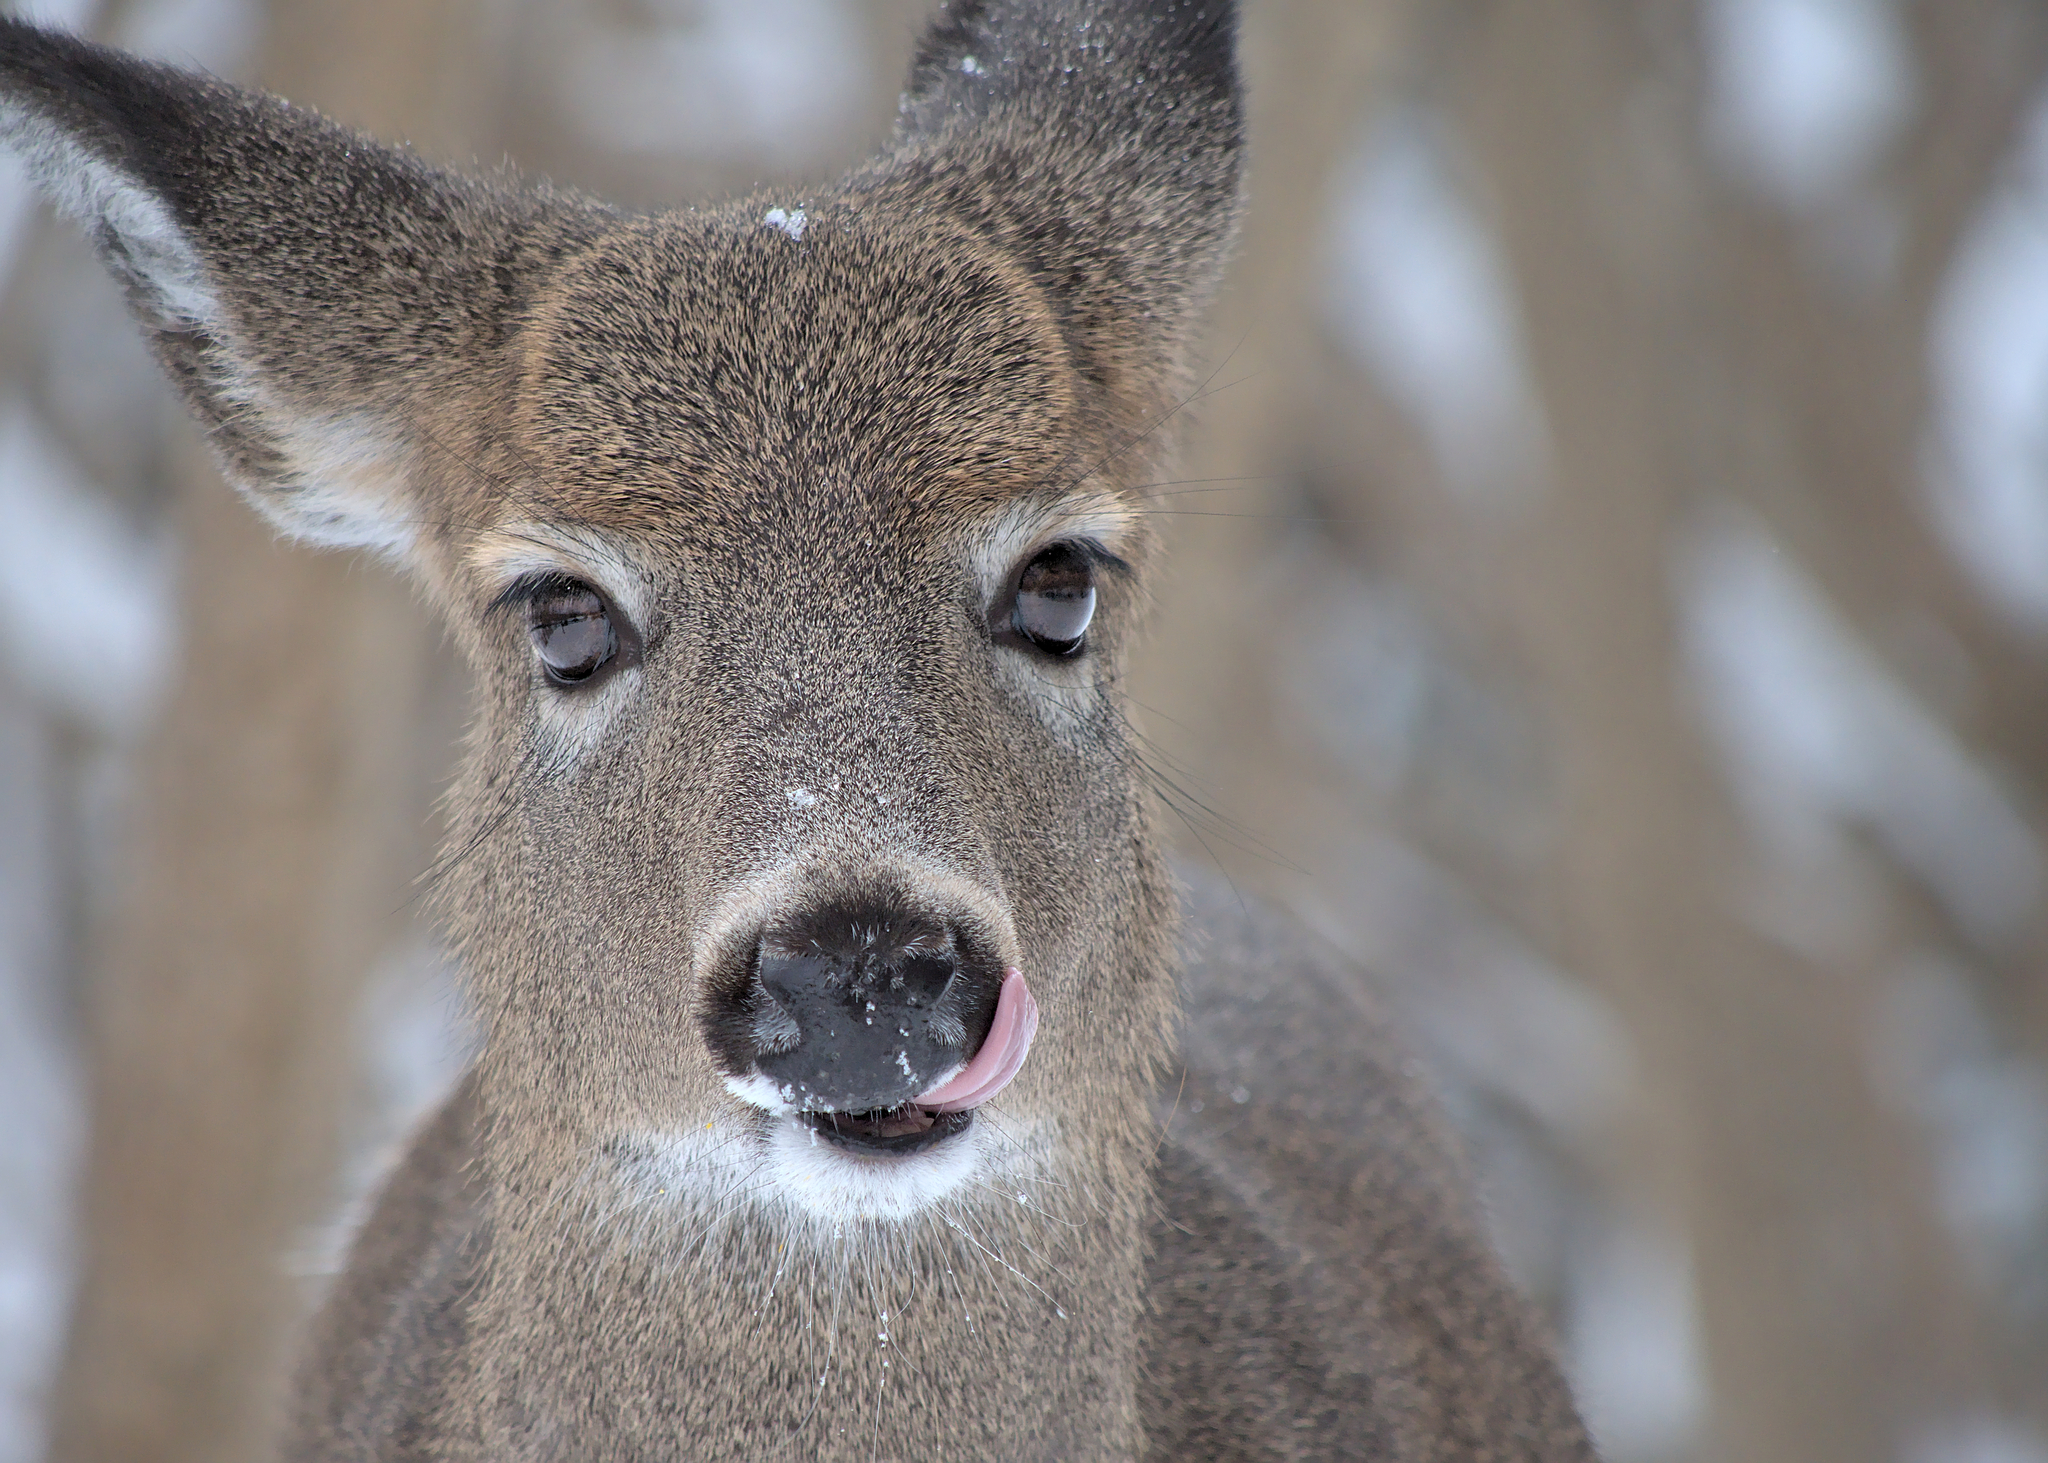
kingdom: Animalia
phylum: Chordata
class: Mammalia
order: Artiodactyla
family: Cervidae
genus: Odocoileus
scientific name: Odocoileus virginianus
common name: White-tailed deer
